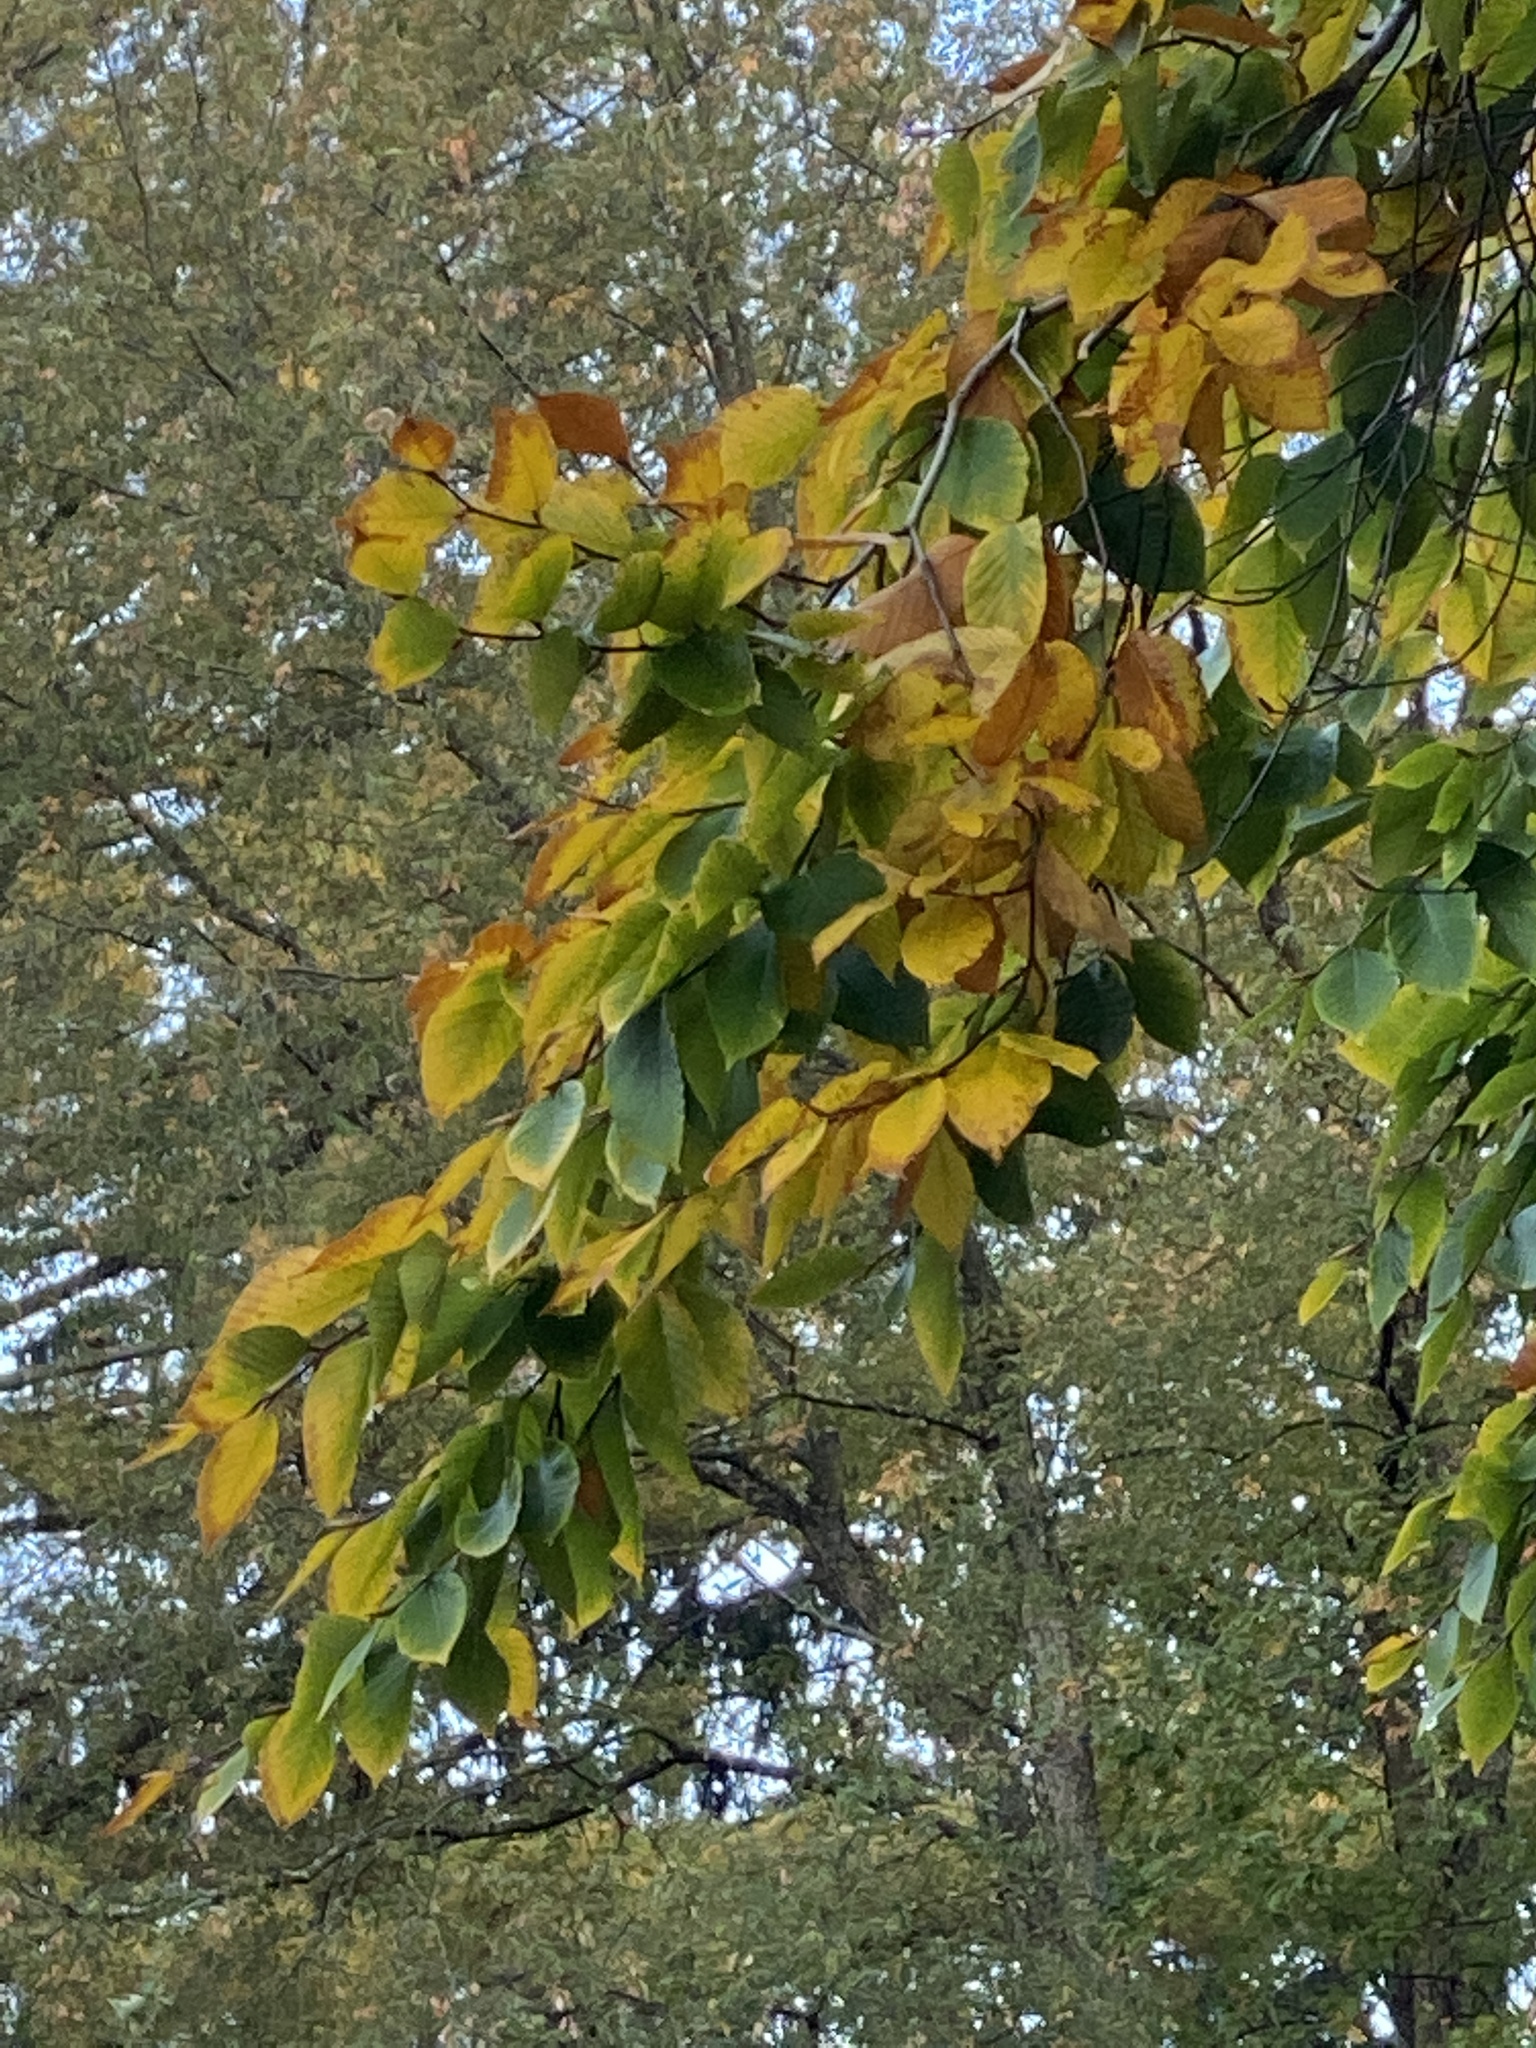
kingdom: Plantae
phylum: Tracheophyta
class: Magnoliopsida
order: Fagales
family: Fagaceae
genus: Fagus
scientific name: Fagus grandifolia
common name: American beech
